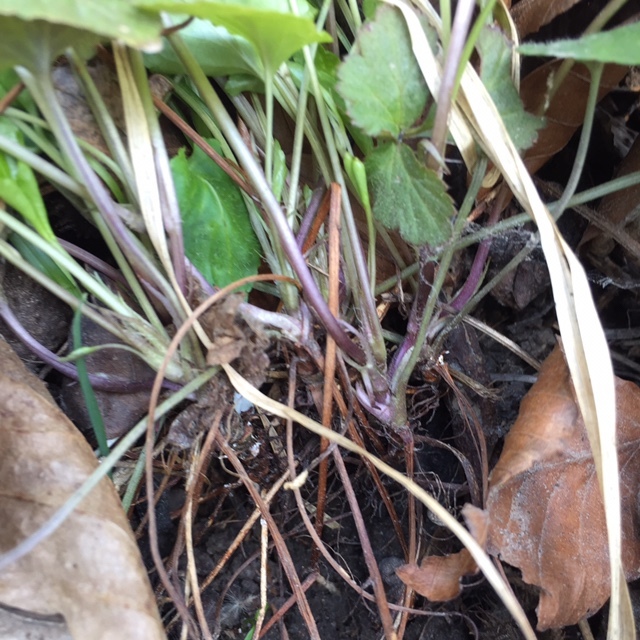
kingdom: Plantae
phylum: Tracheophyta
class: Magnoliopsida
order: Malpighiales
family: Violaceae
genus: Viola
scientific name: Viola reichenbachiana
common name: Early dog-violet
